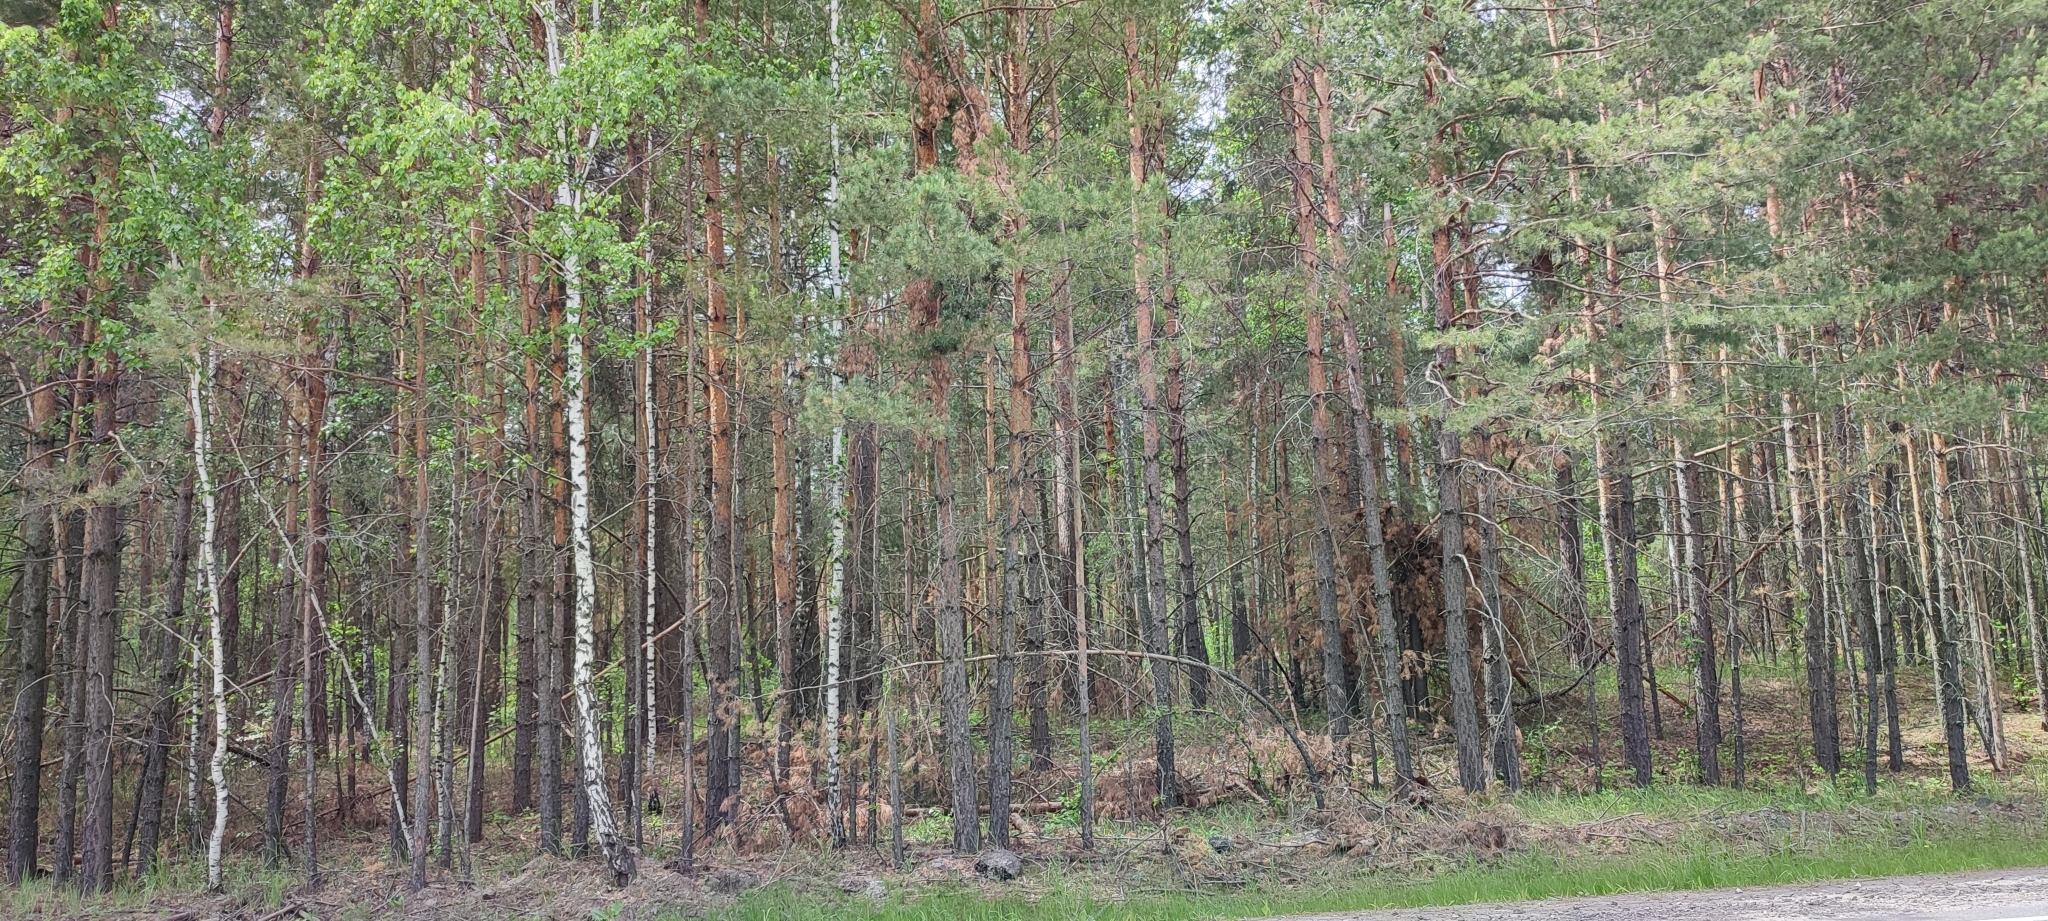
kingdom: Plantae
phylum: Tracheophyta
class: Pinopsida
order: Pinales
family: Pinaceae
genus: Pinus
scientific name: Pinus sylvestris
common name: Scots pine
